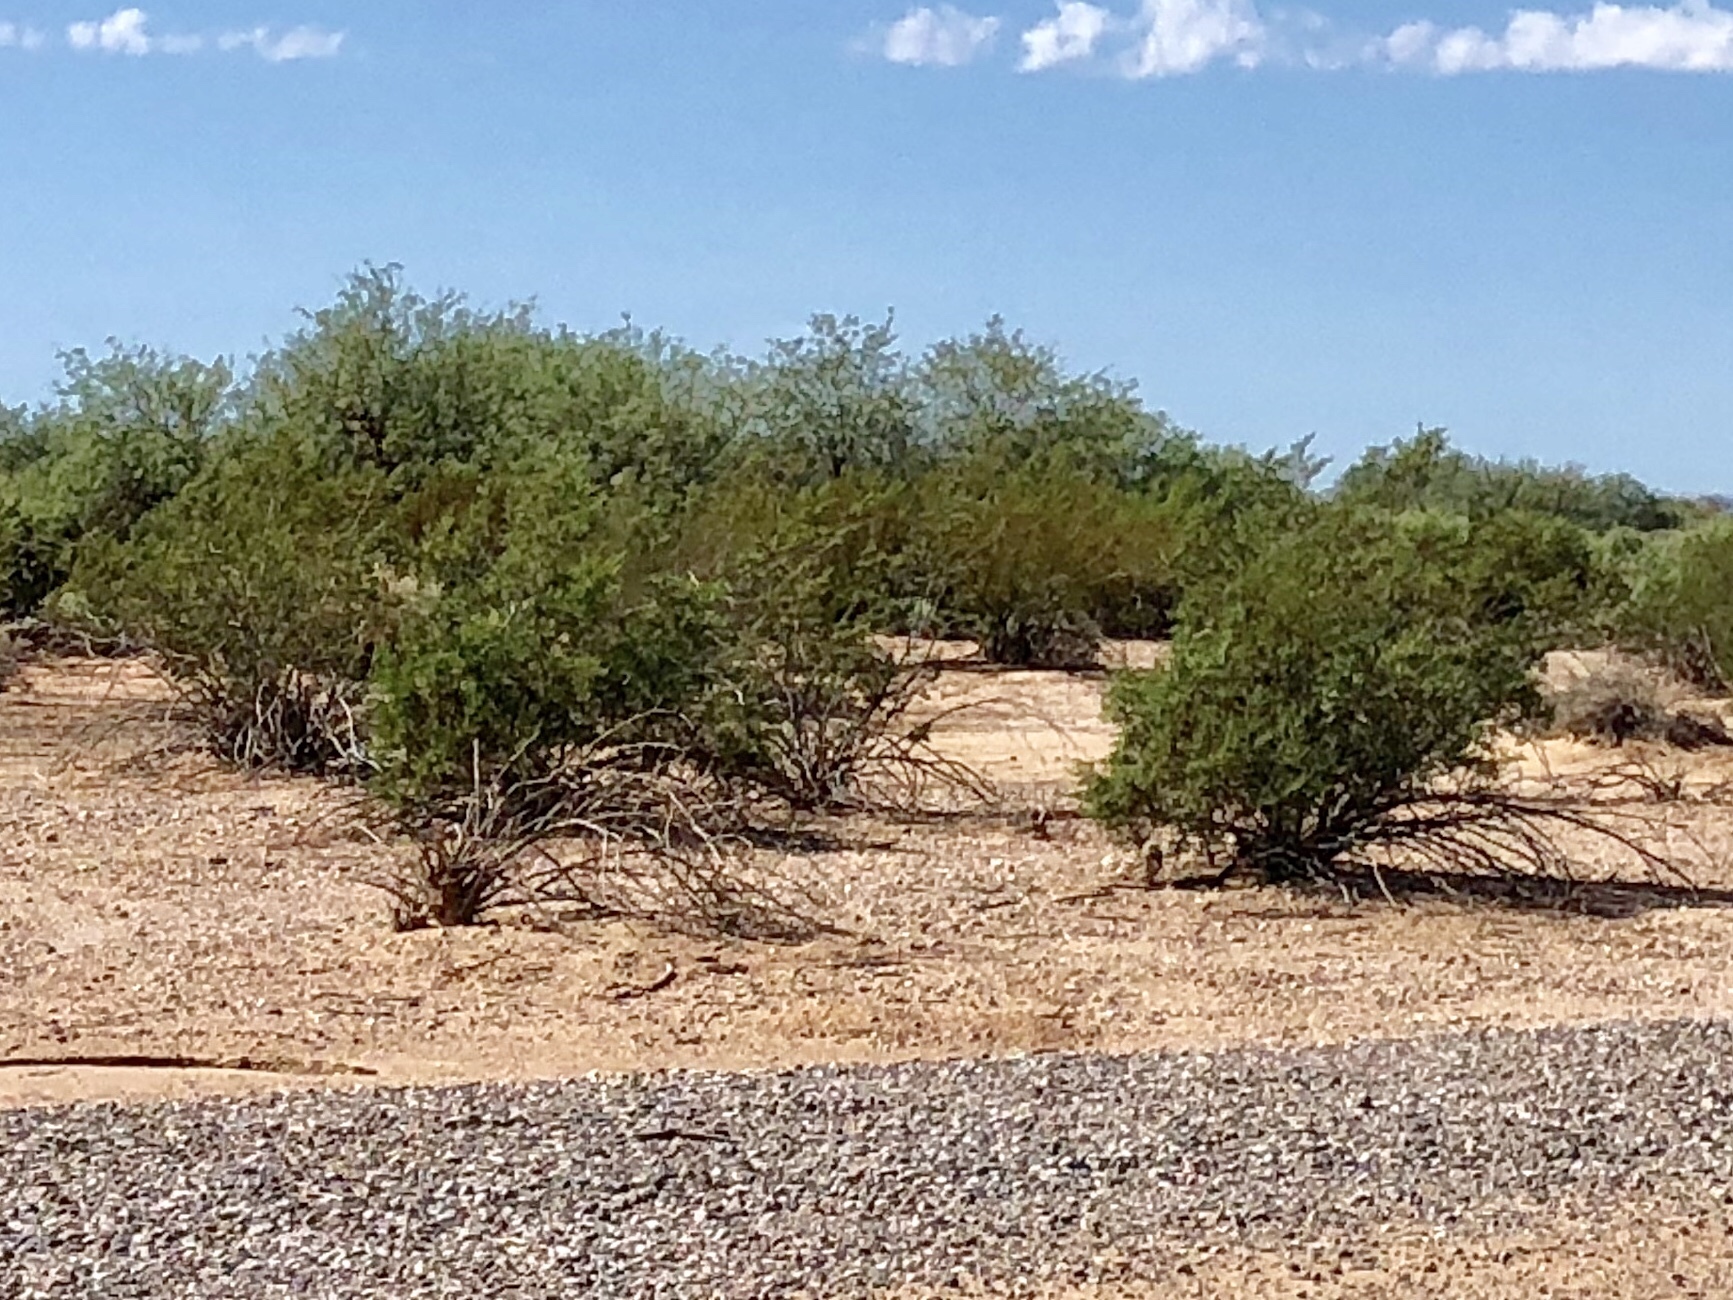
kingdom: Plantae
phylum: Tracheophyta
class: Magnoliopsida
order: Zygophyllales
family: Zygophyllaceae
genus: Larrea
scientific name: Larrea tridentata
